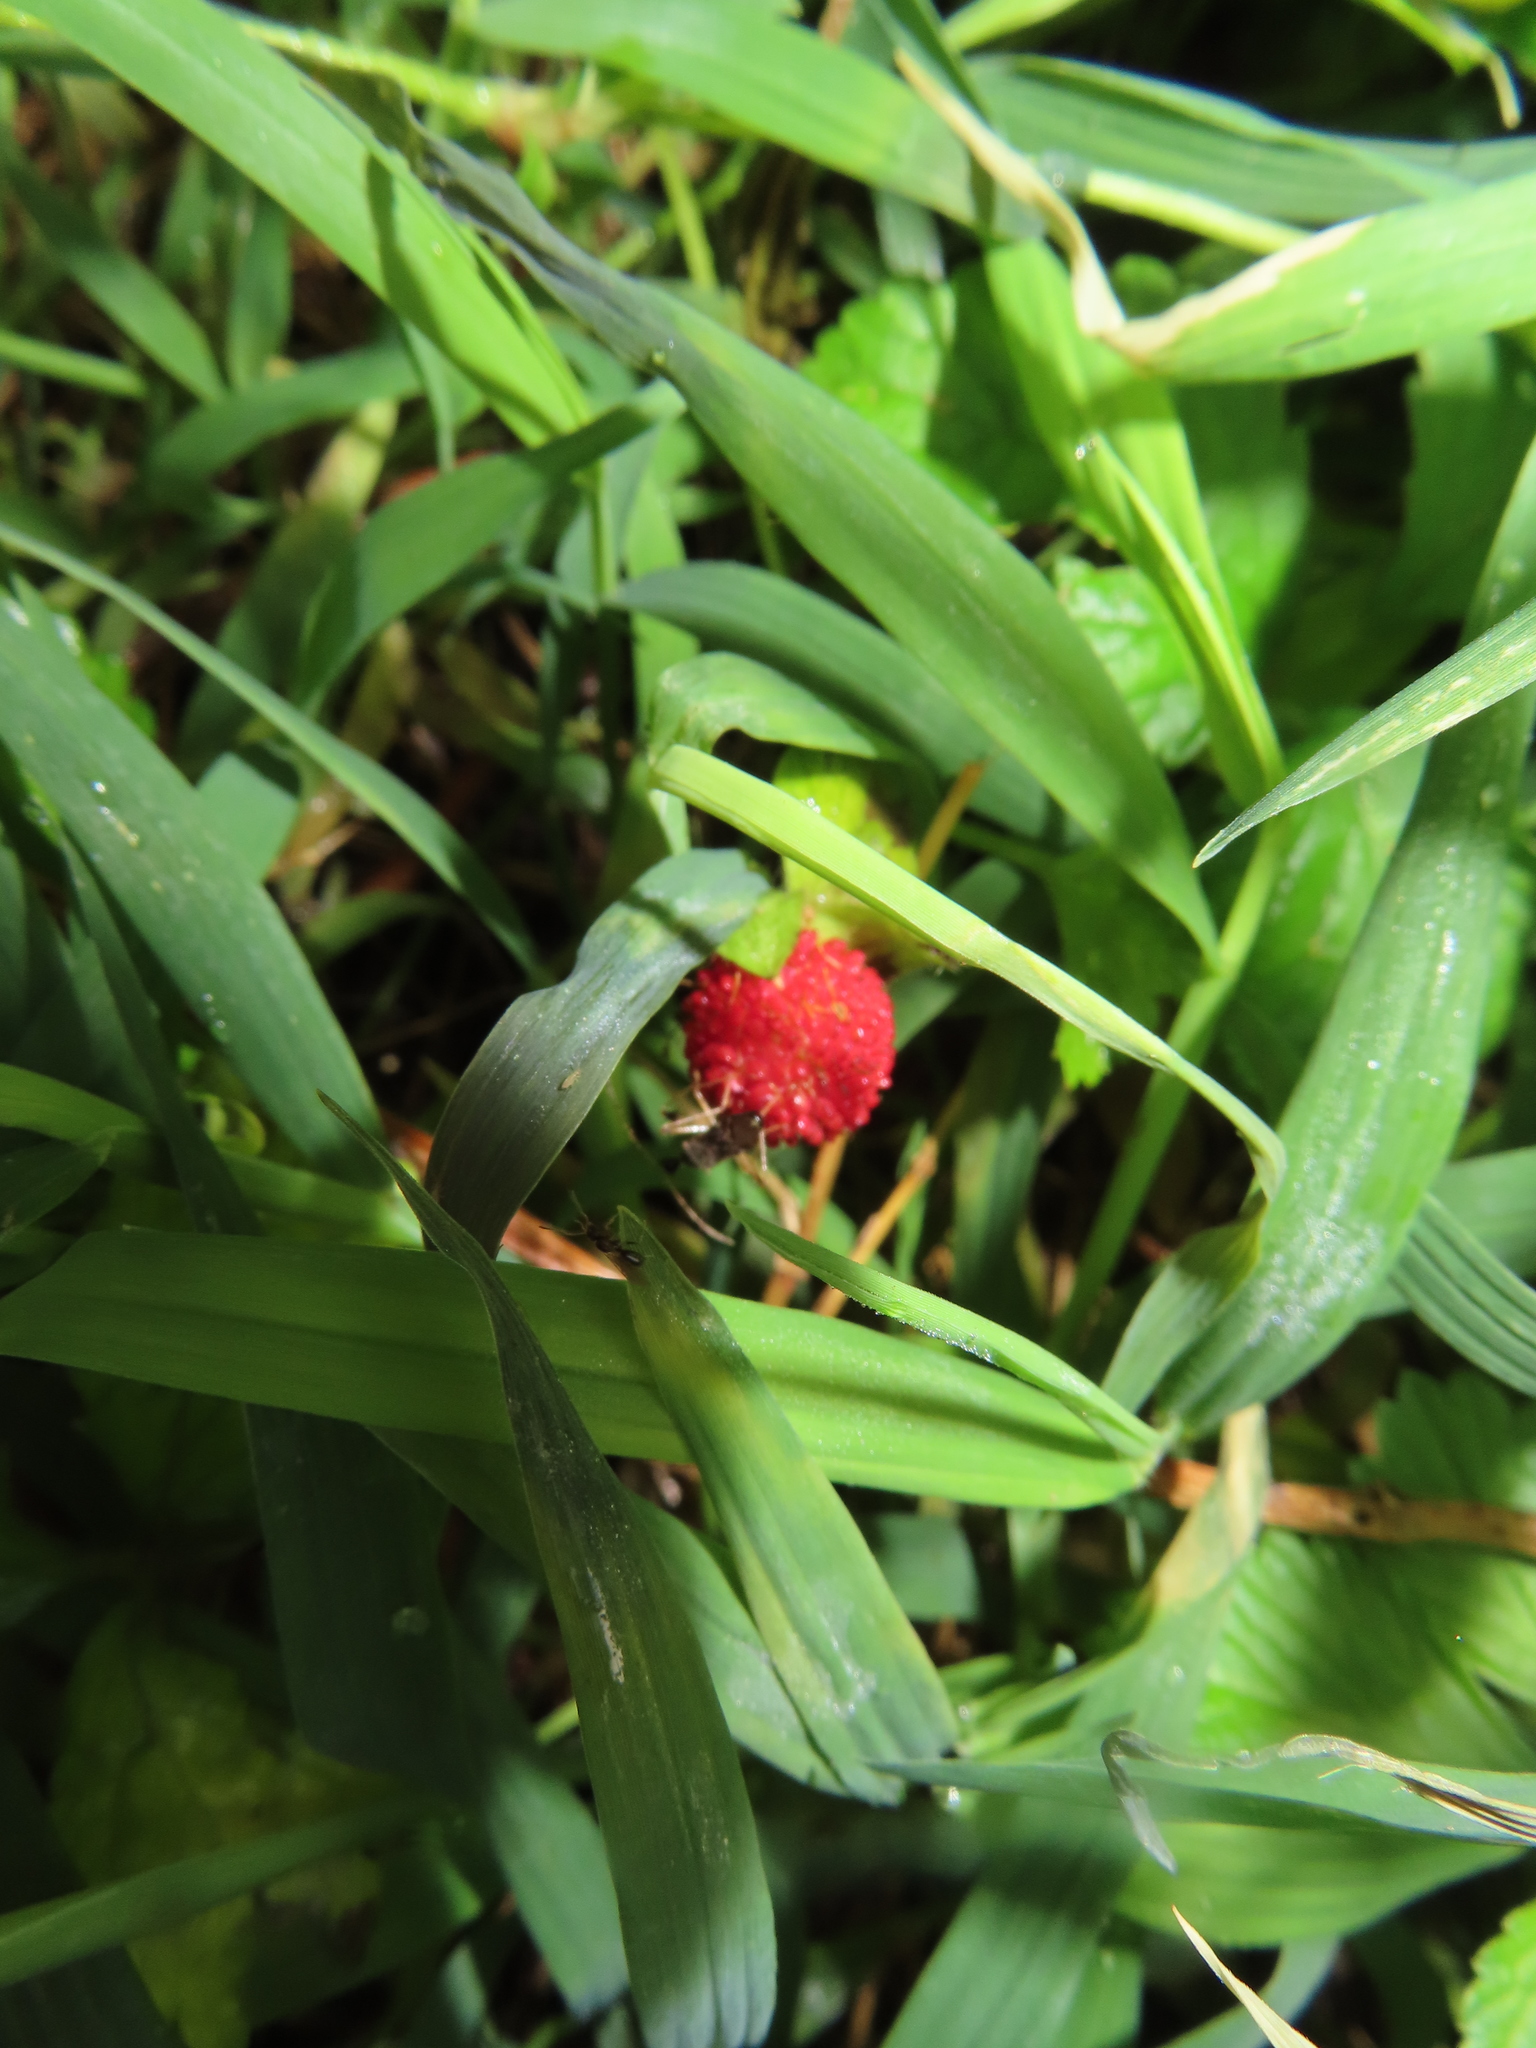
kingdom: Plantae
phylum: Tracheophyta
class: Magnoliopsida
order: Rosales
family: Rosaceae
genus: Potentilla
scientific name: Potentilla indica
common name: Yellow-flowered strawberry
